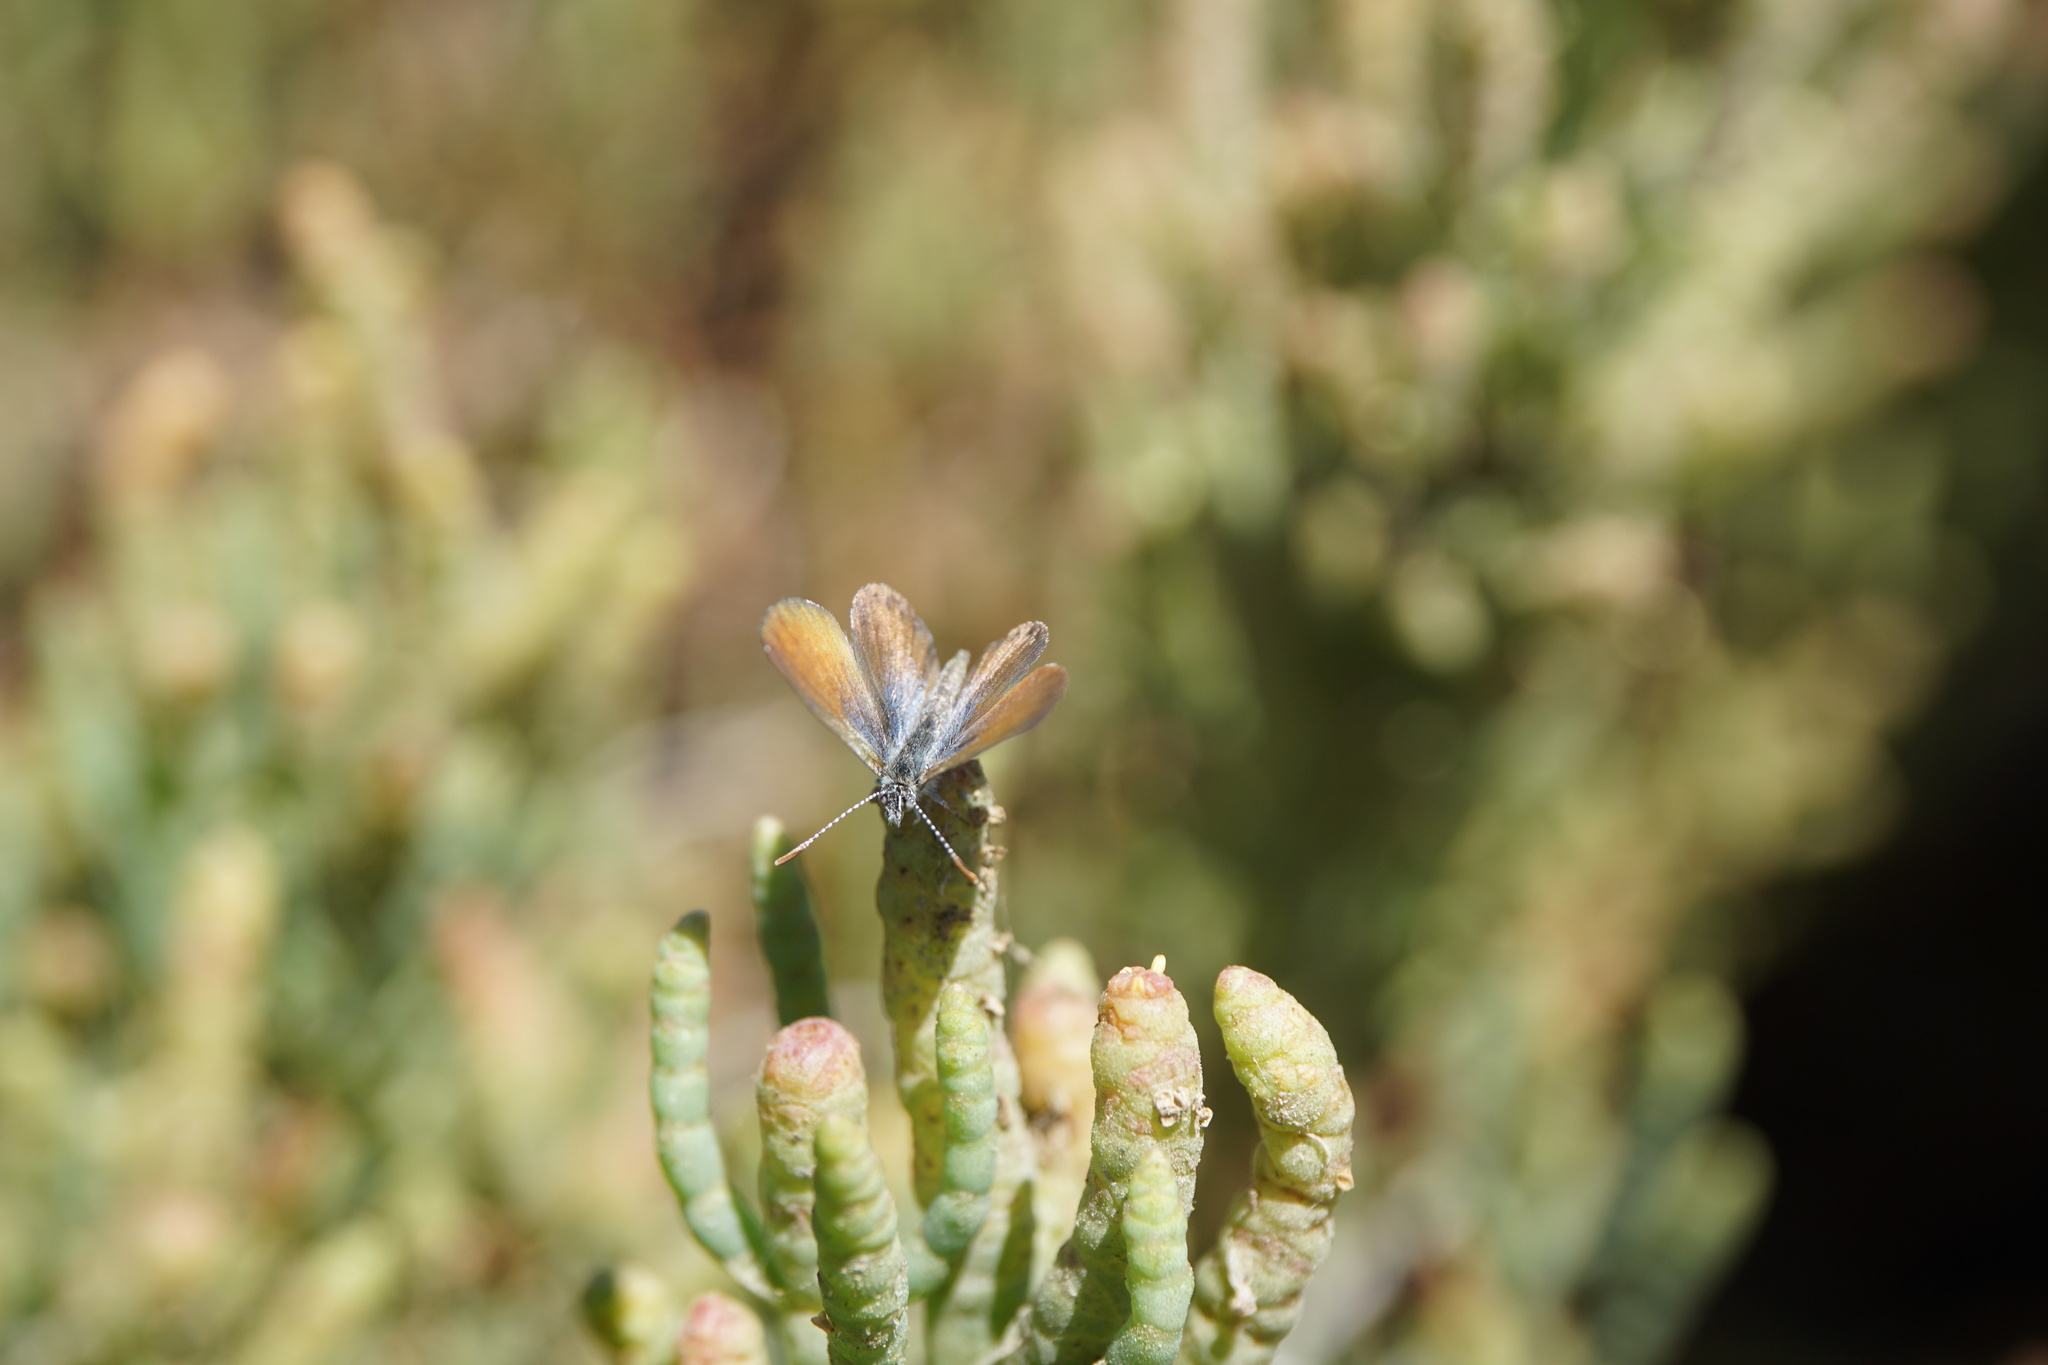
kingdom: Animalia
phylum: Arthropoda
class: Insecta
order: Lepidoptera
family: Lycaenidae
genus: Brephidium
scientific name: Brephidium exilis
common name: Pygmy blue
